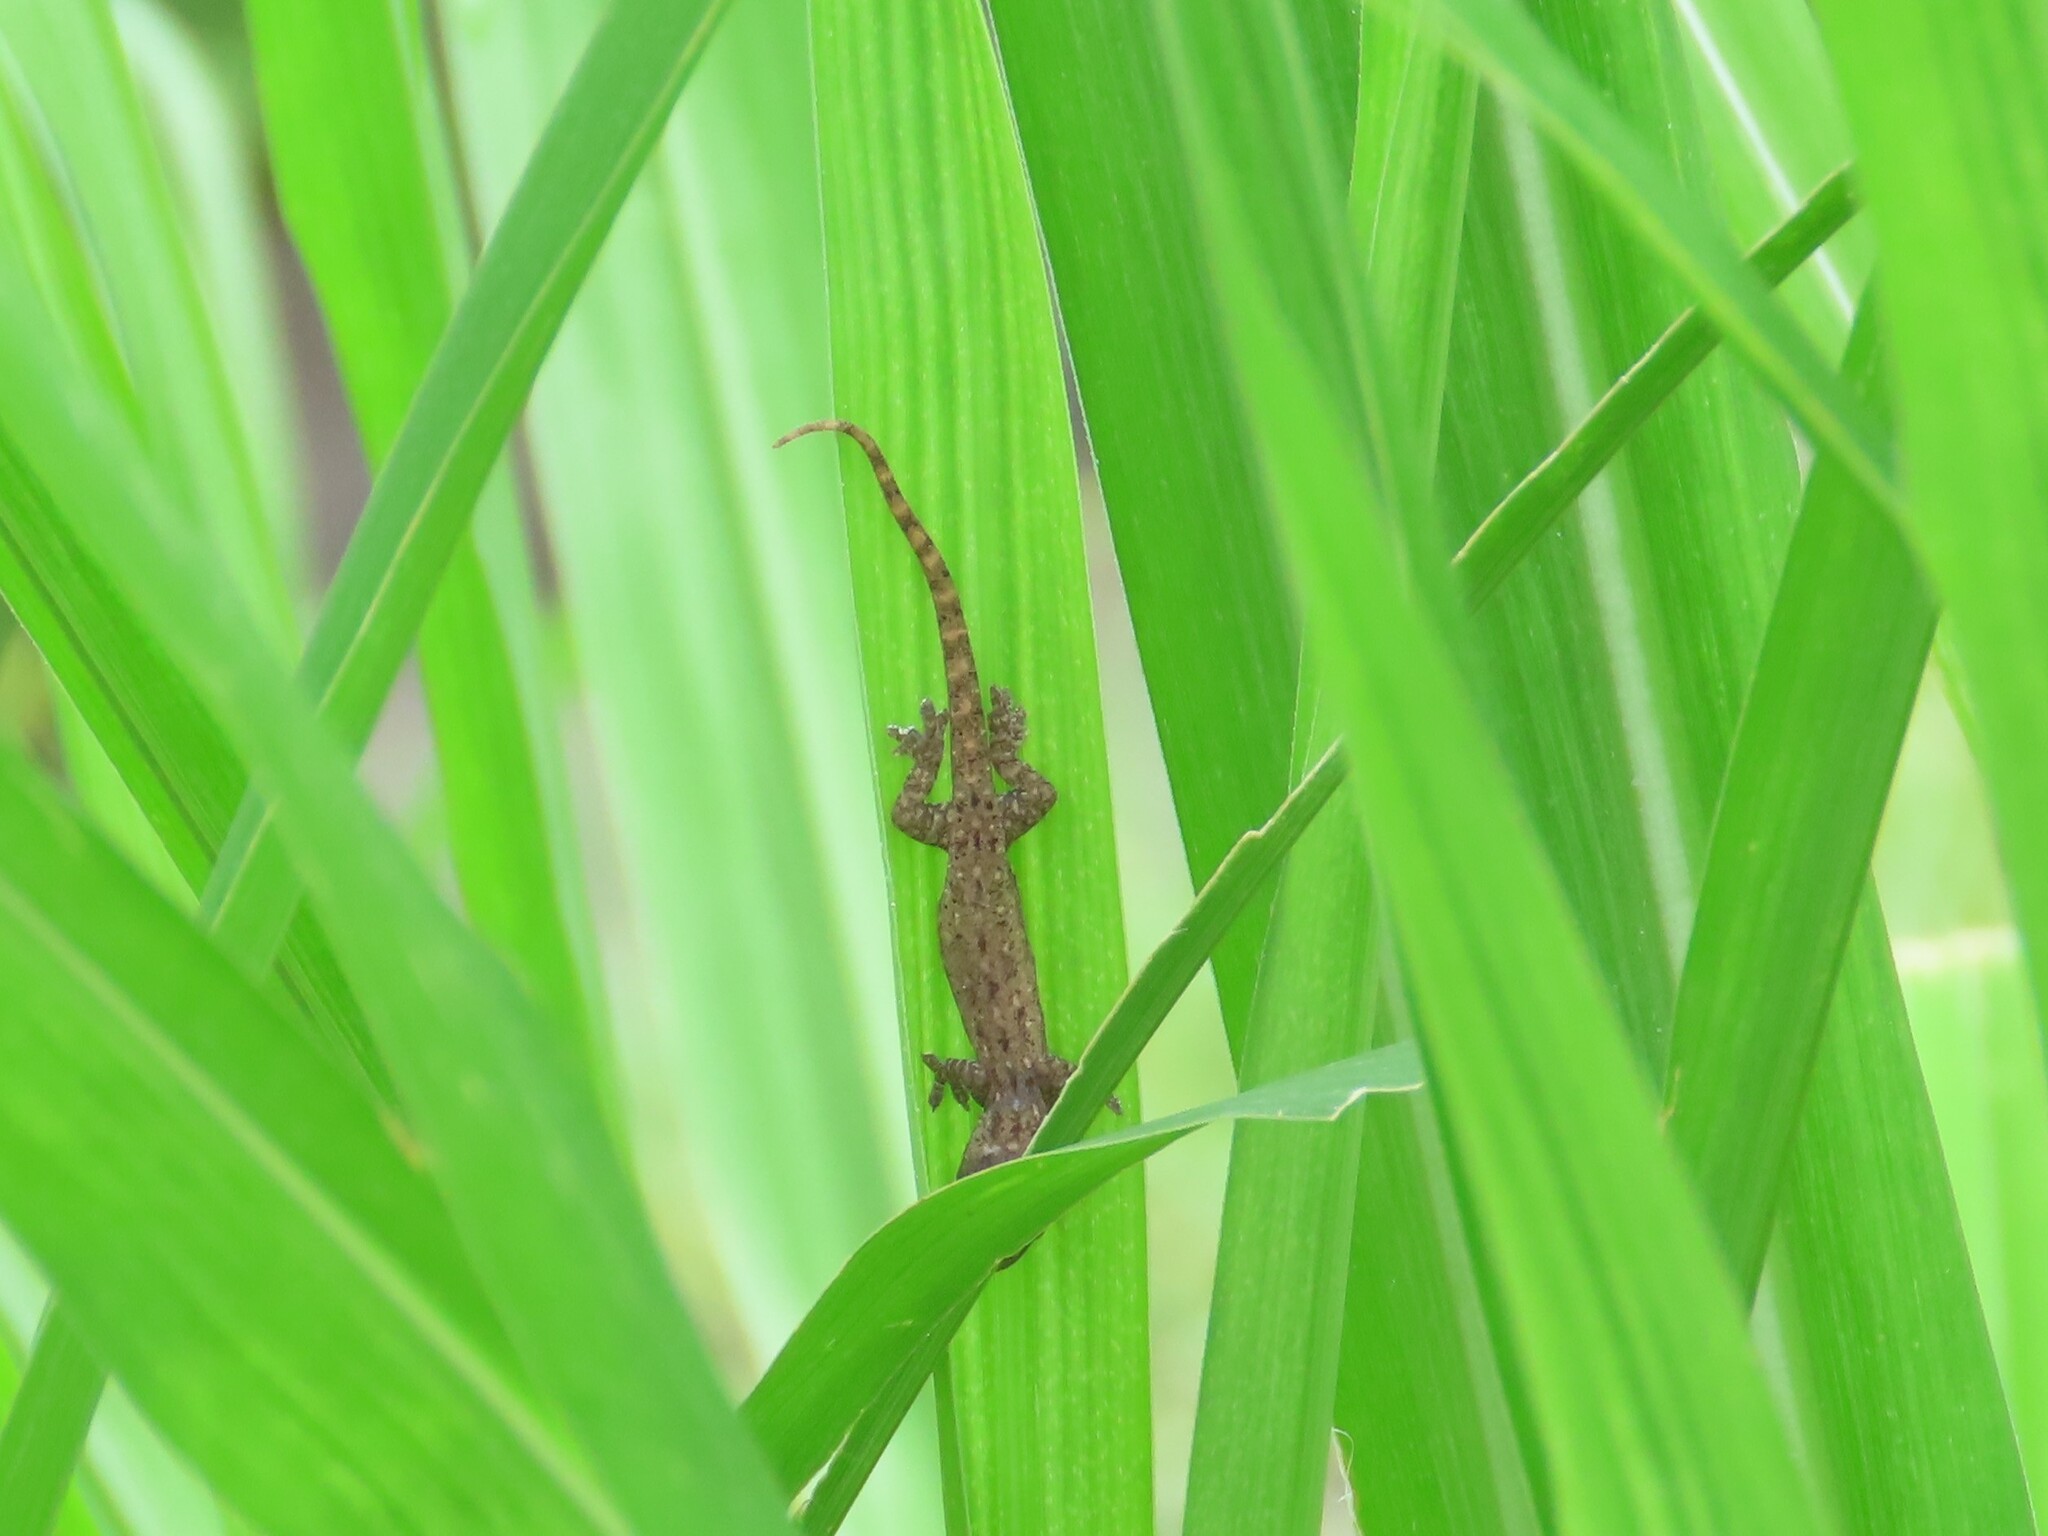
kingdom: Animalia
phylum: Chordata
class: Squamata
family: Gekkonidae
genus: Hemidactylus
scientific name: Hemidactylus frenatus
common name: Common house gecko
